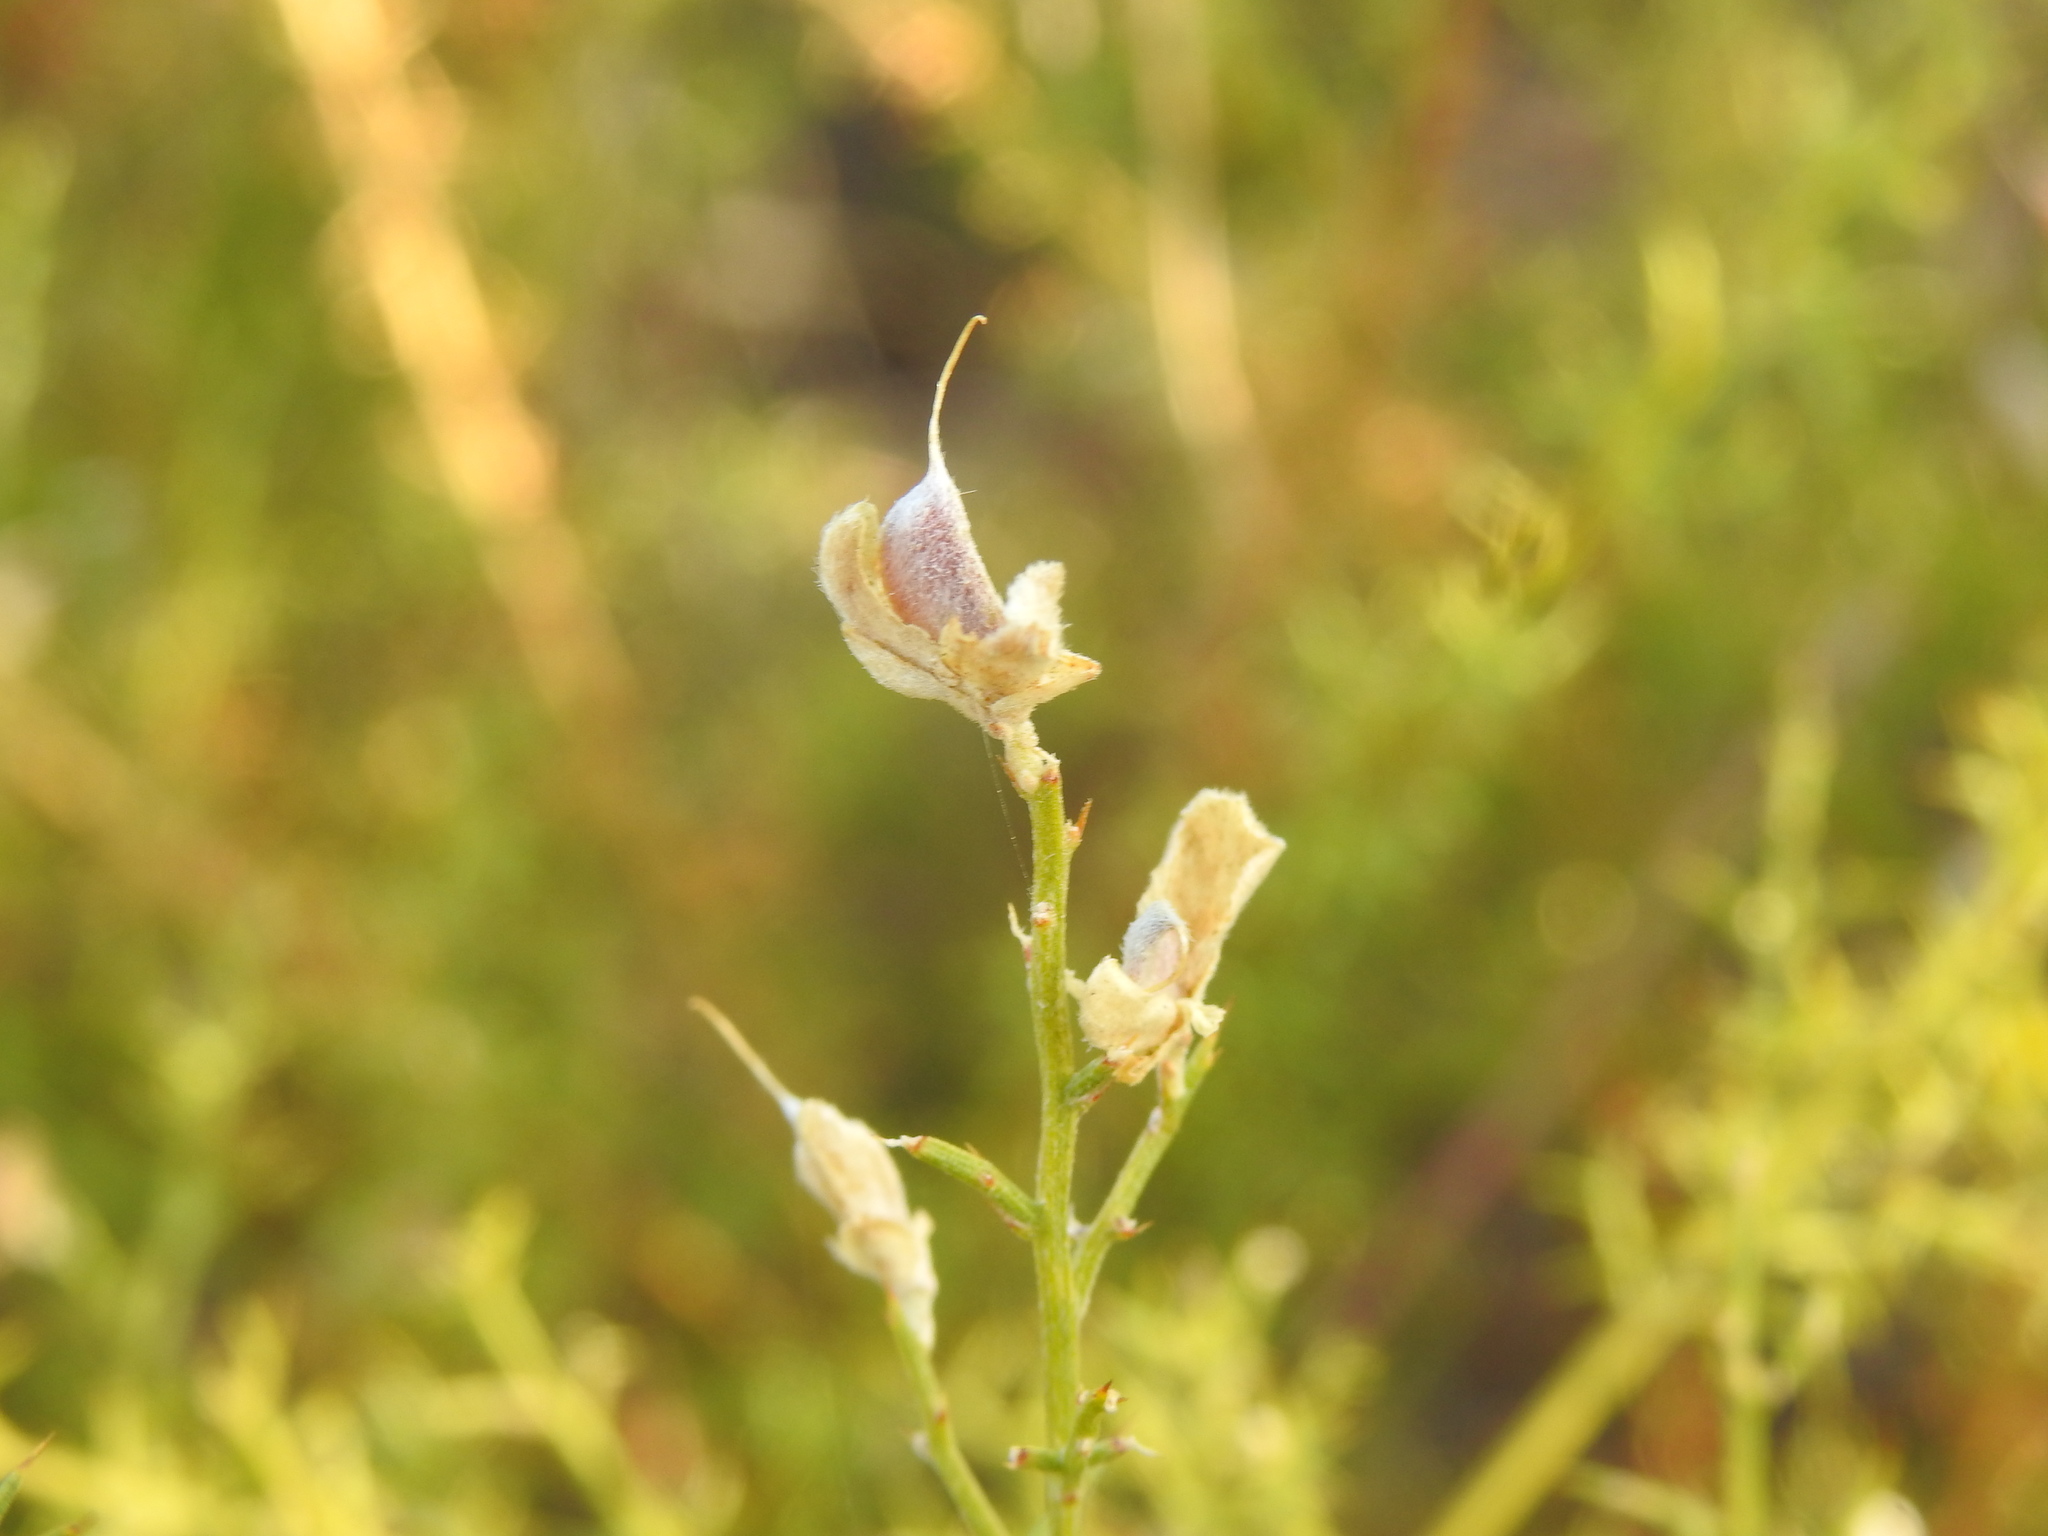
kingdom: Plantae
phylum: Tracheophyta
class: Magnoliopsida
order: Fabales
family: Fabaceae
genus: Stauracanthus
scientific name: Stauracanthus boivinii
